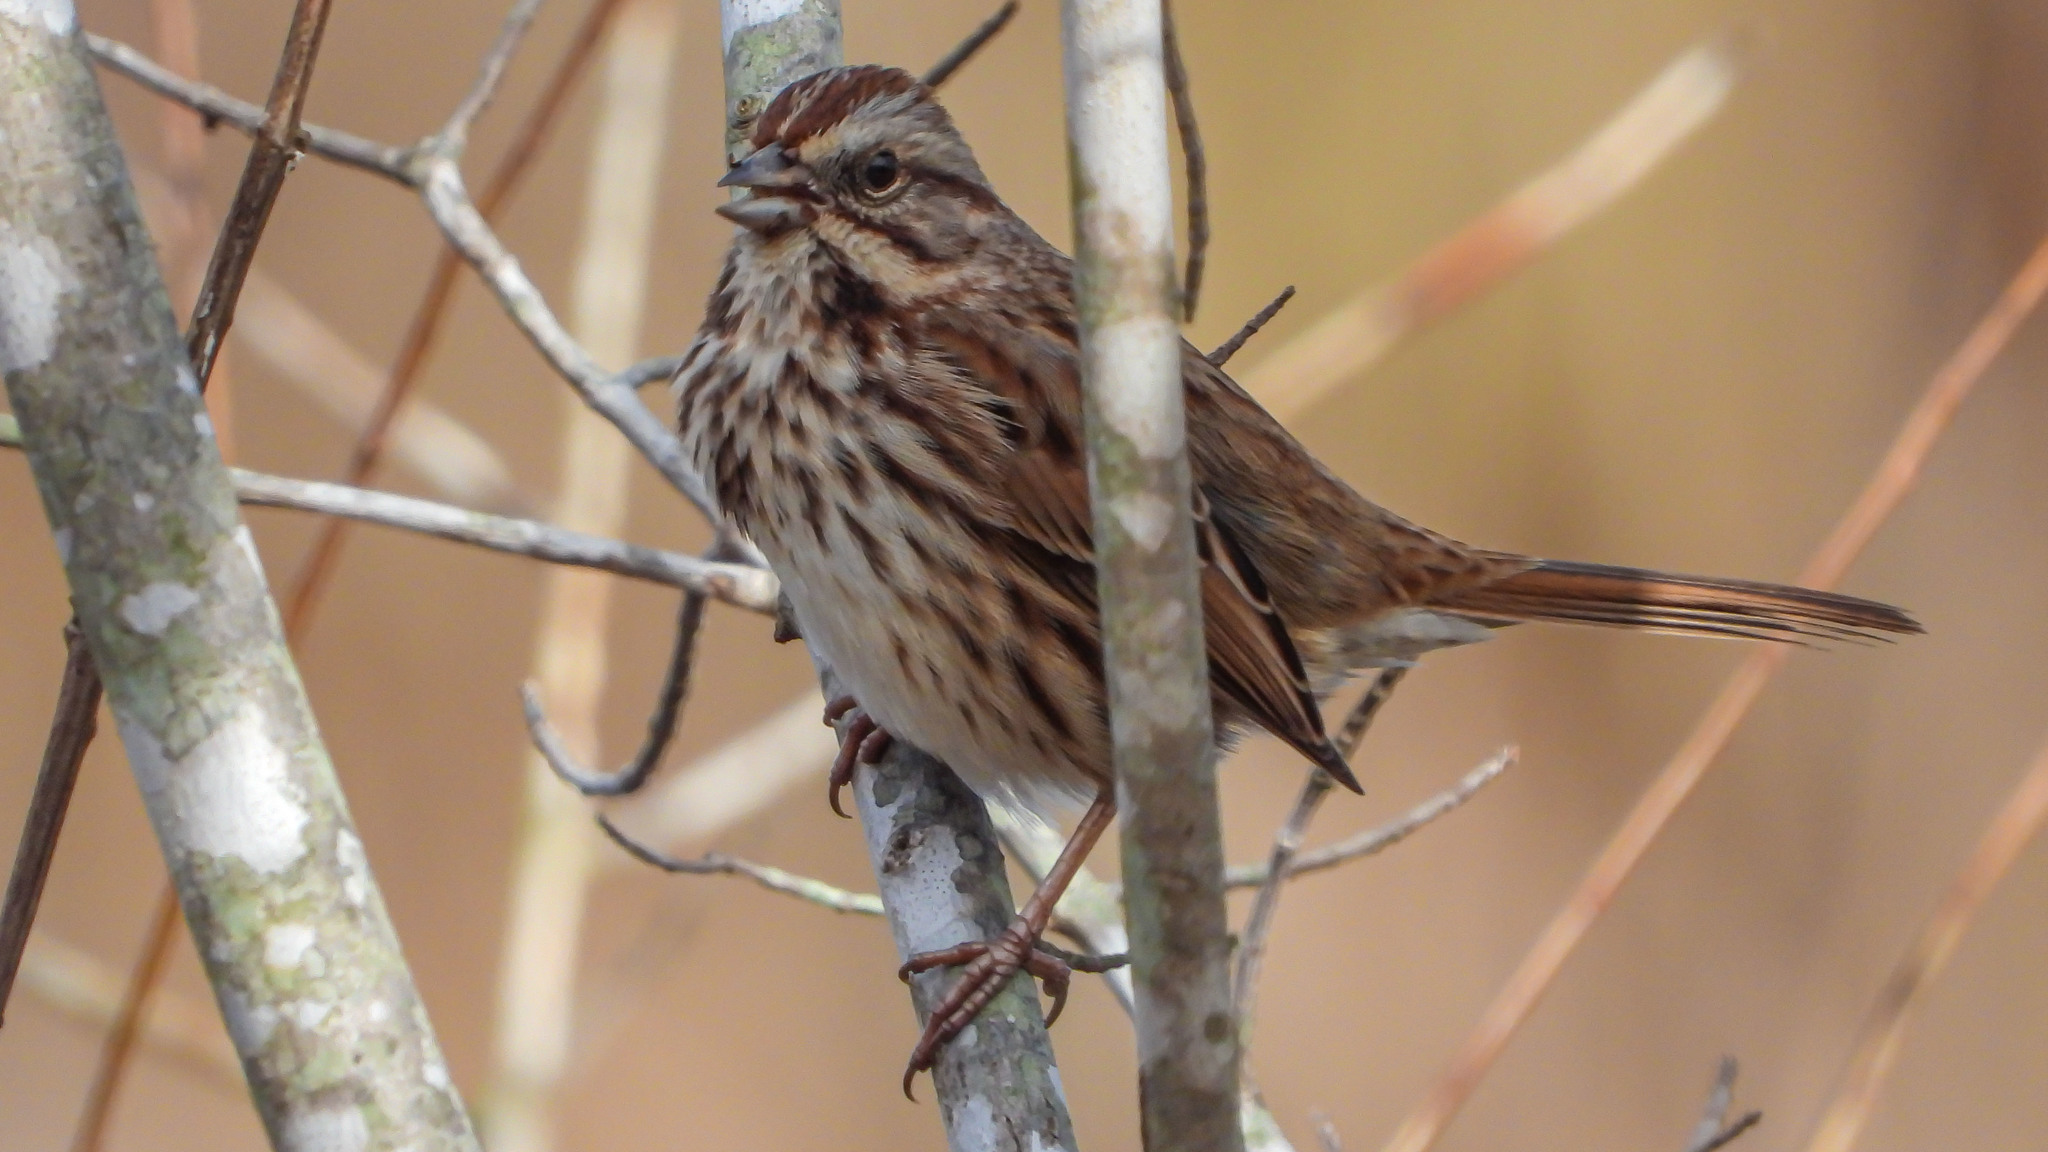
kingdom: Animalia
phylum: Chordata
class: Aves
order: Passeriformes
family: Passerellidae
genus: Melospiza
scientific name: Melospiza melodia
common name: Song sparrow
